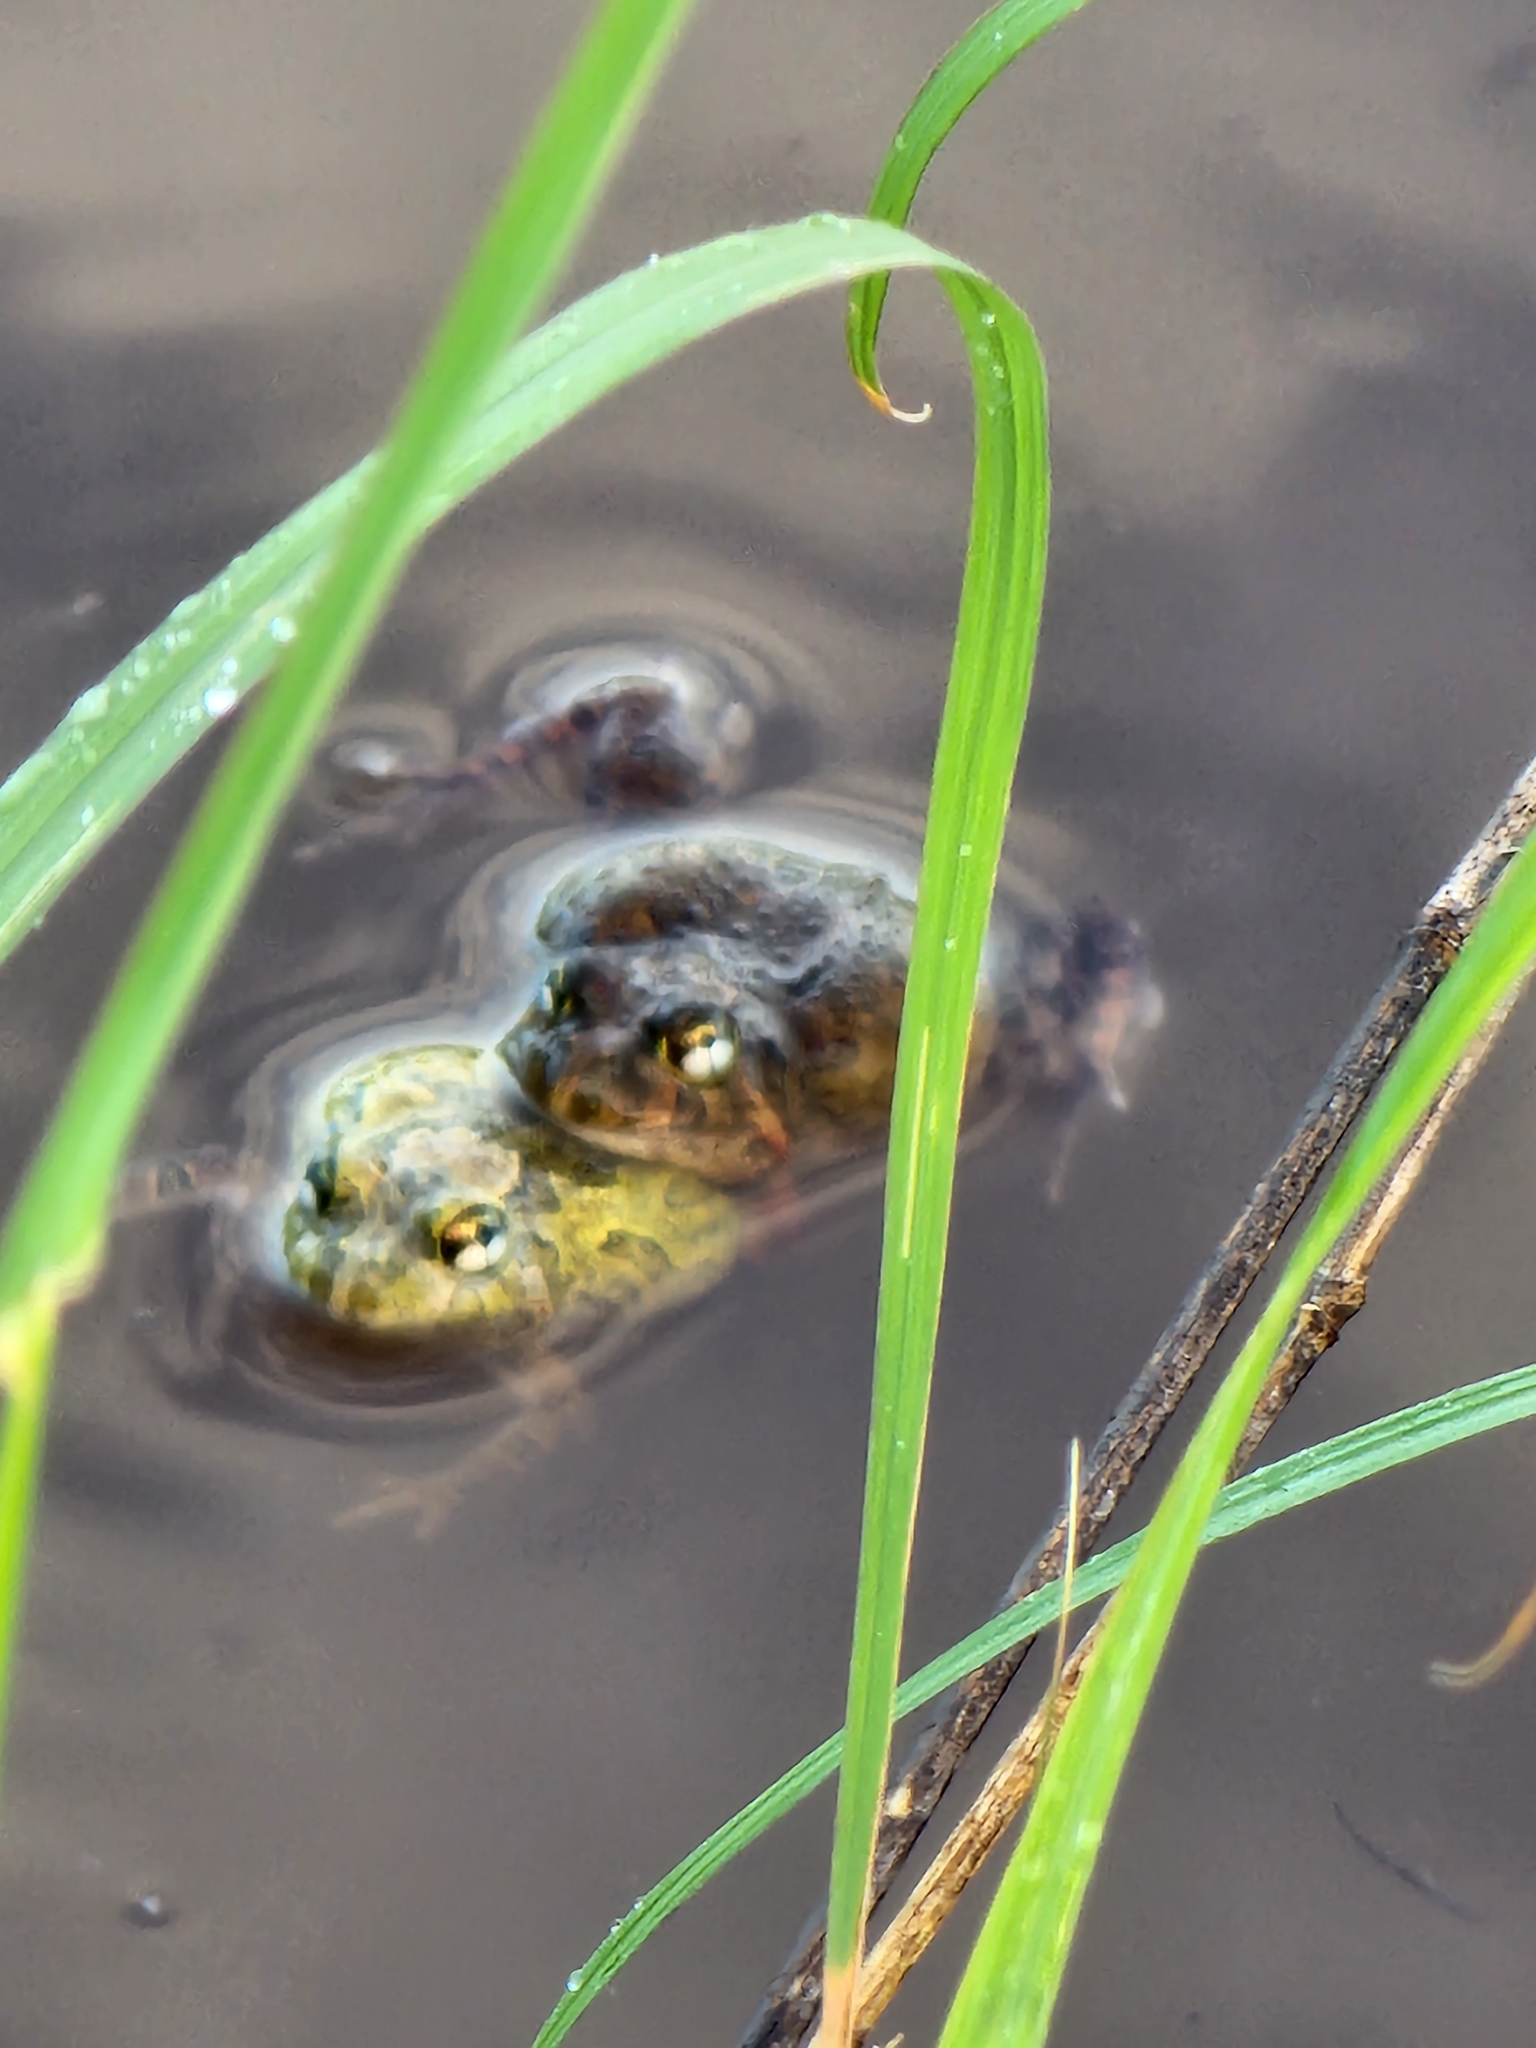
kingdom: Animalia
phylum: Chordata
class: Amphibia
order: Anura
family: Limnodynastidae
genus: Platyplectrum
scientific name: Platyplectrum ornatum
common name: Ornate burrowing frog
